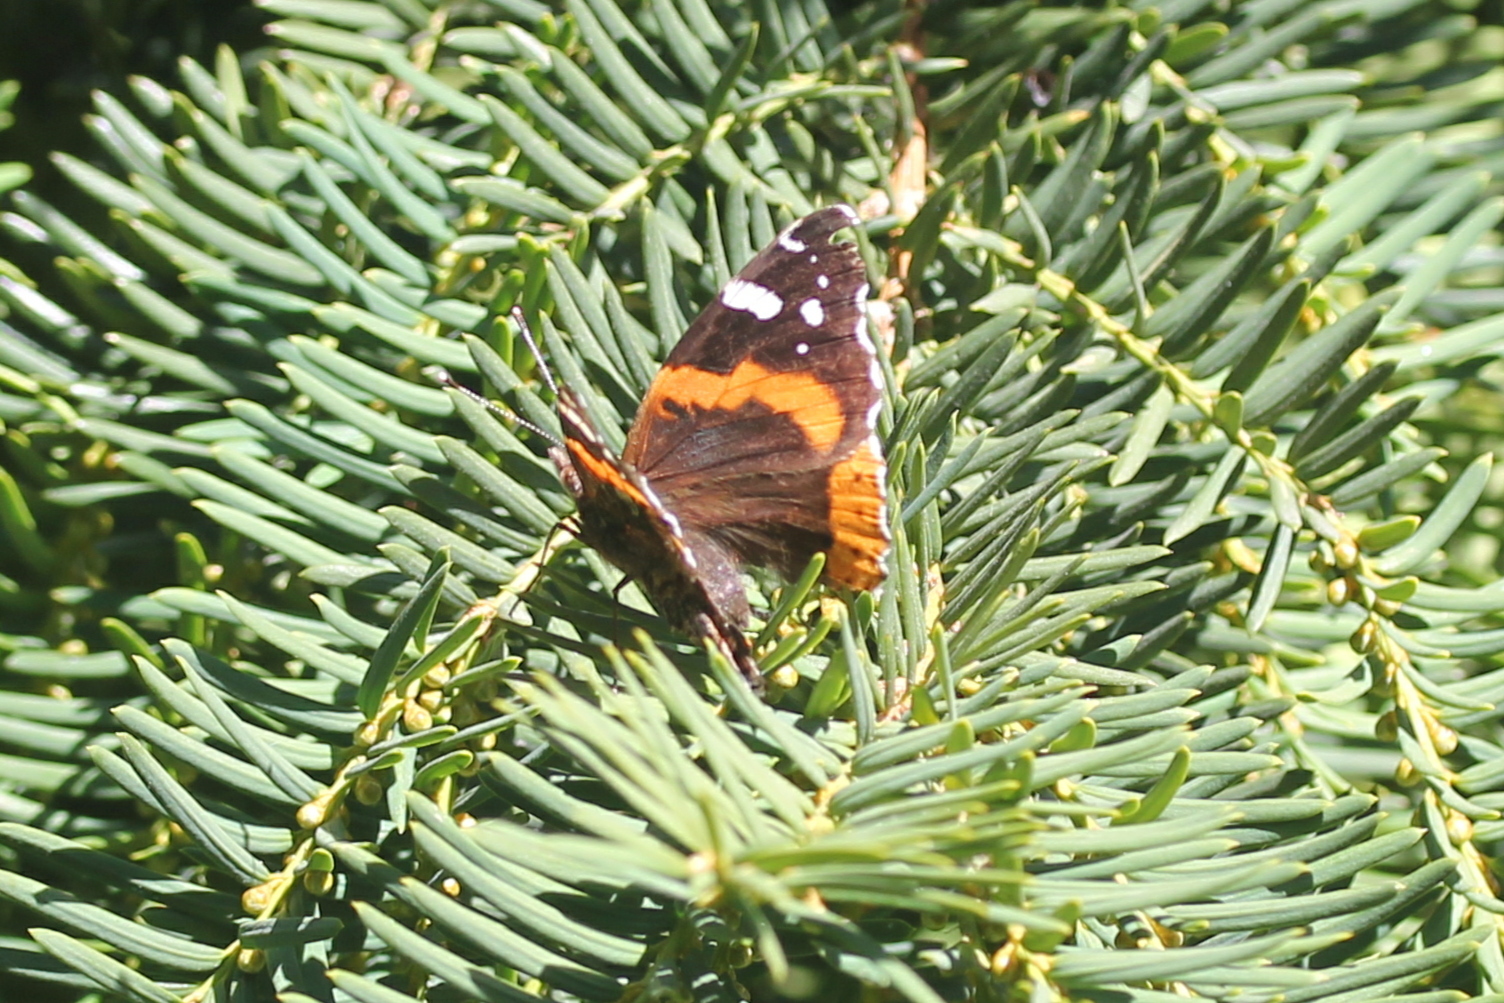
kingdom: Animalia
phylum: Arthropoda
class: Insecta
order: Lepidoptera
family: Nymphalidae
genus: Vanessa
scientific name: Vanessa atalanta
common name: Red admiral
